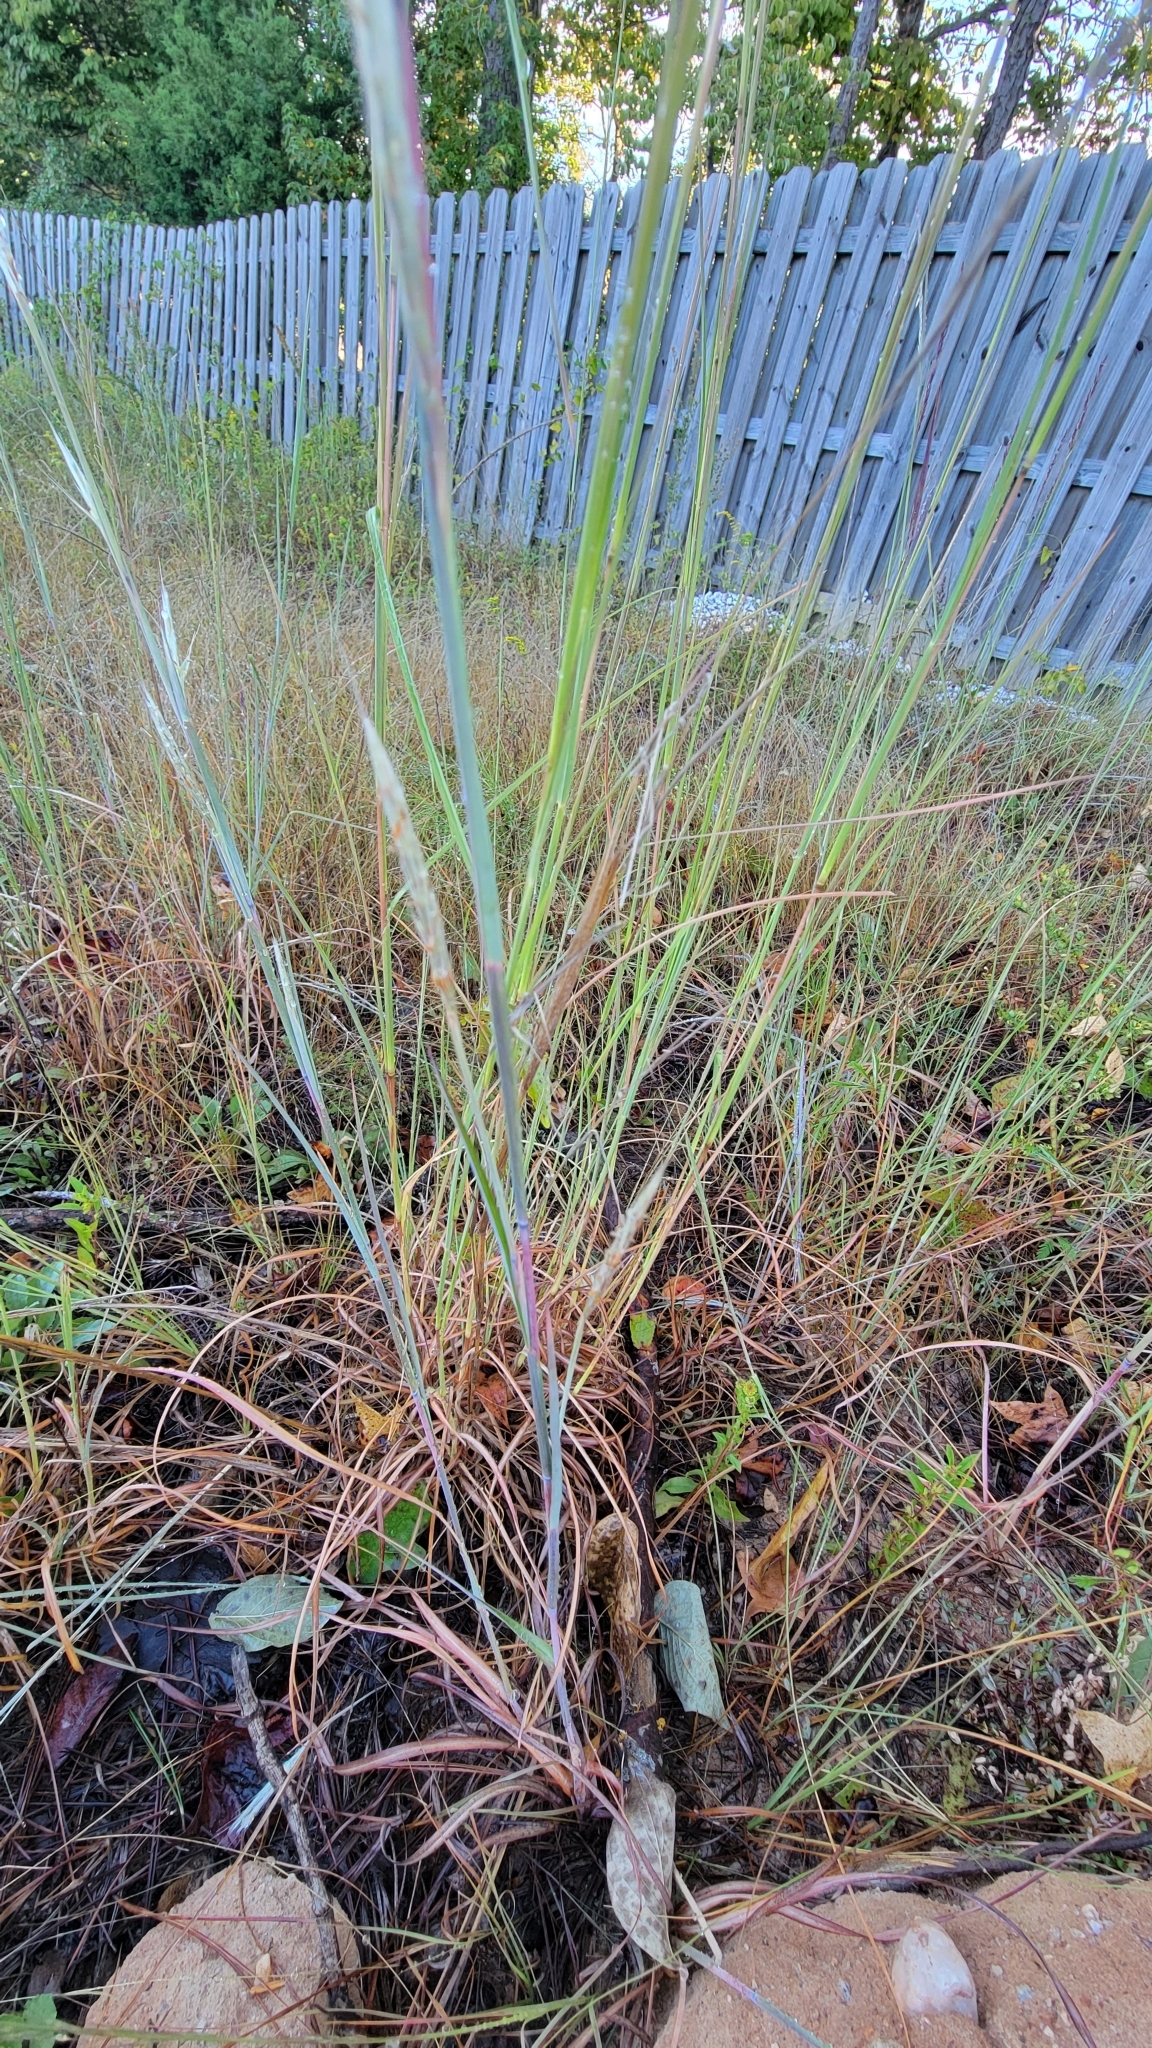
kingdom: Plantae
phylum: Tracheophyta
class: Magnoliopsida
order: Asterales
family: Asteraceae
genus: Chrysopsis
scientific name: Chrysopsis mariana
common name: Maryland golden-aster
